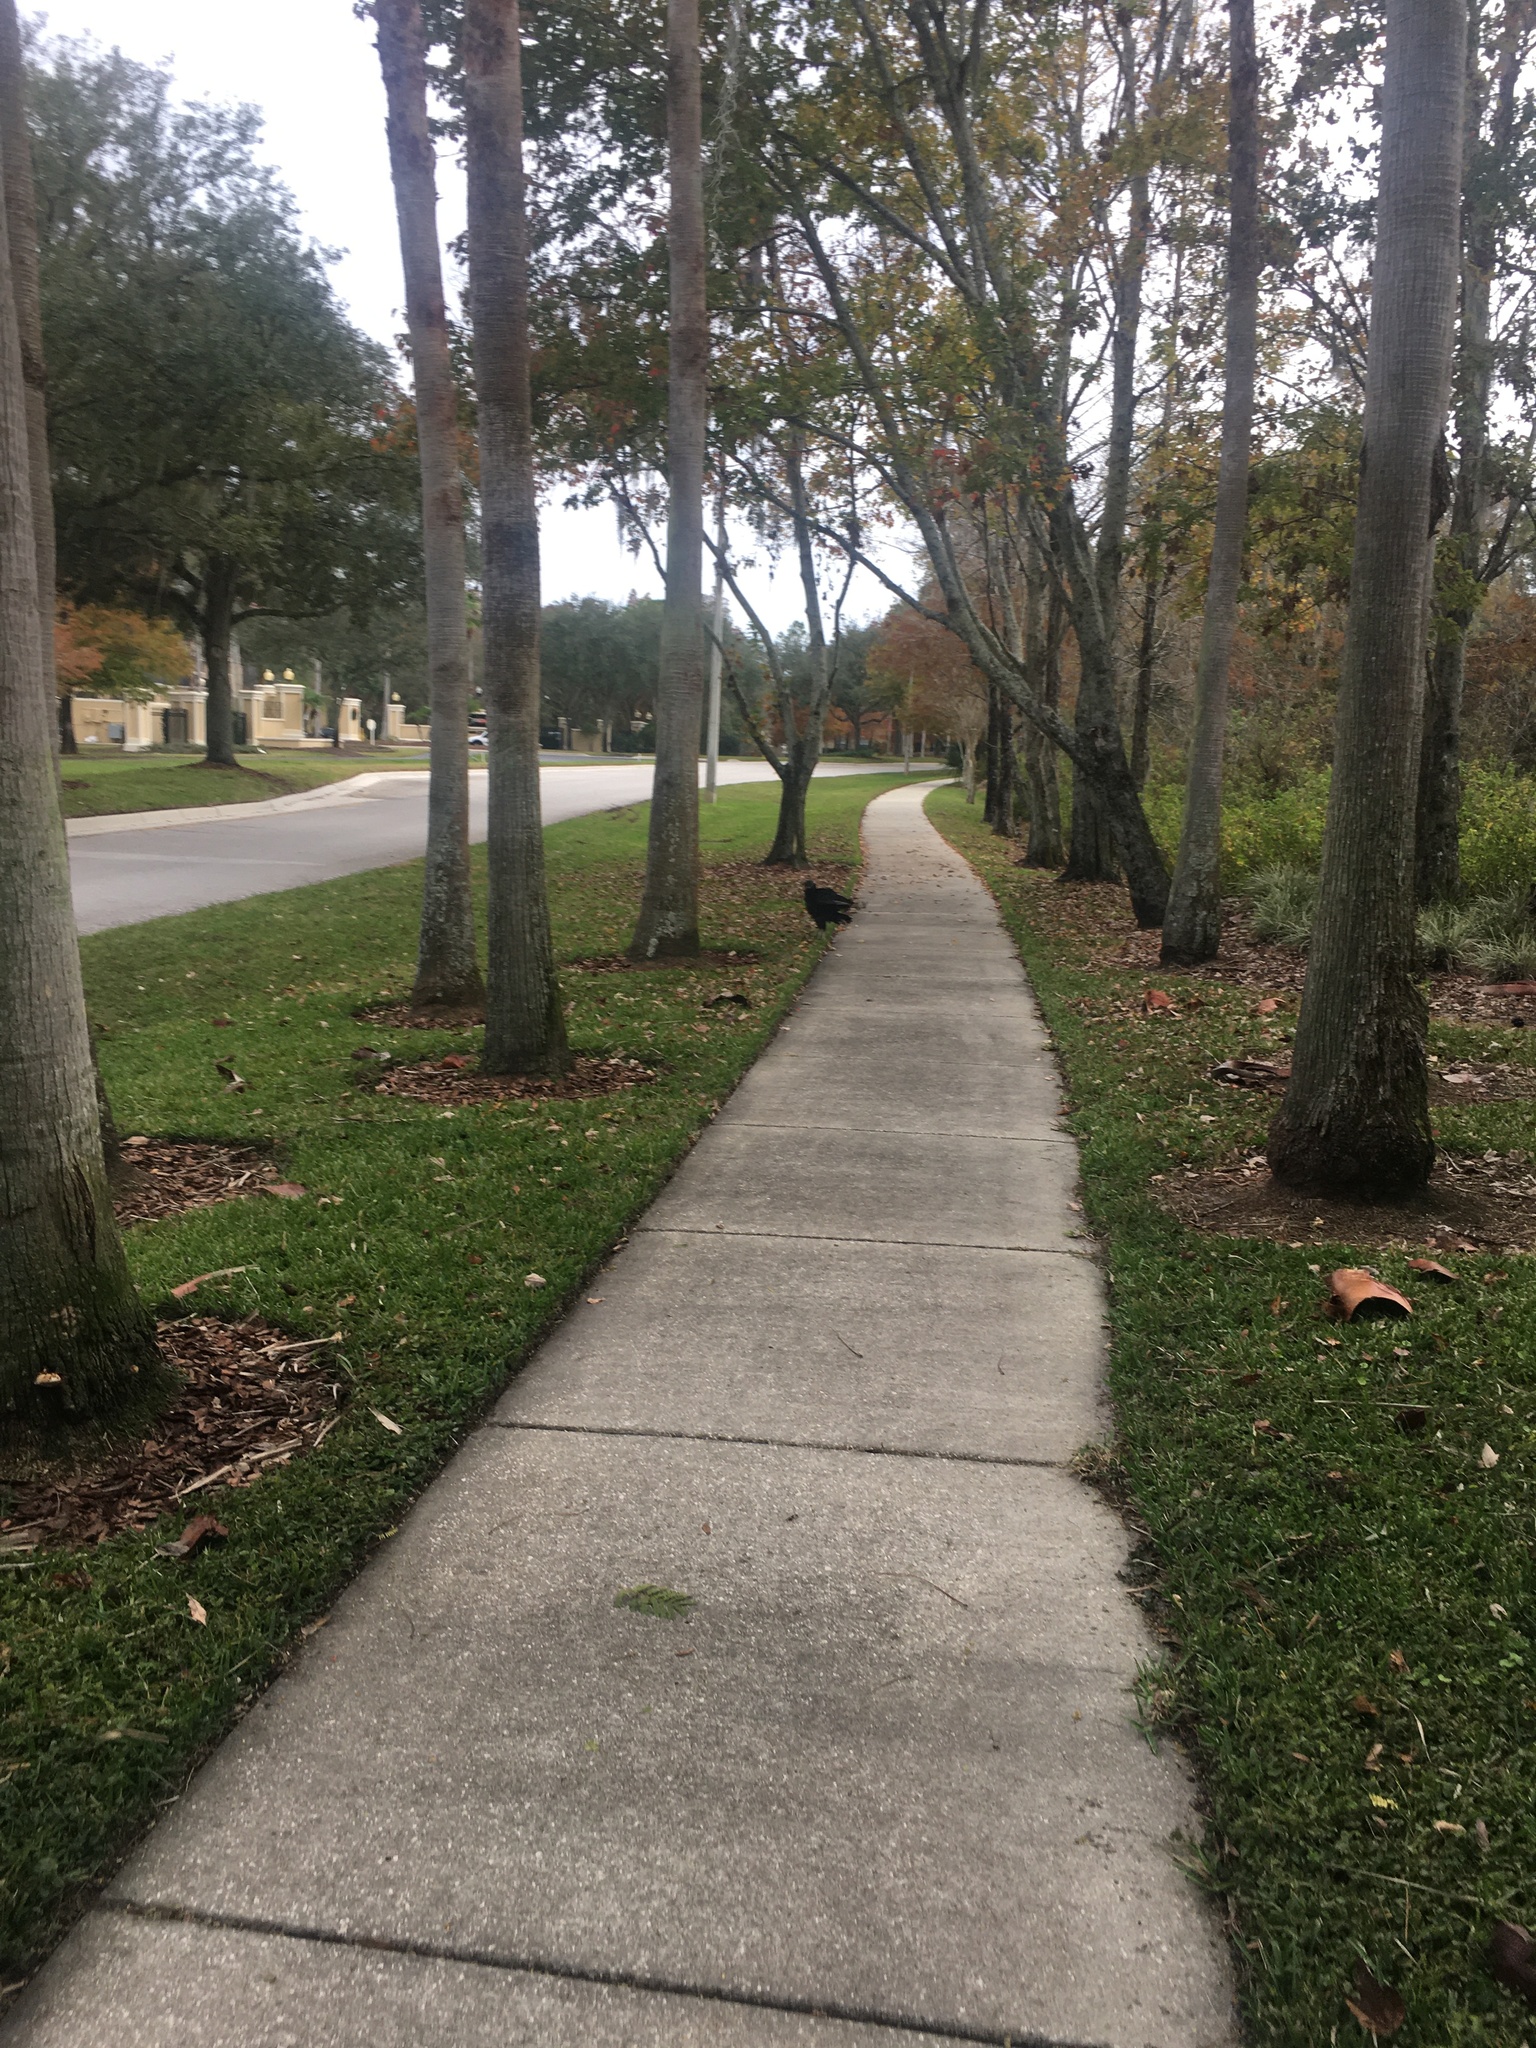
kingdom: Animalia
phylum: Chordata
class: Aves
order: Accipitriformes
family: Cathartidae
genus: Coragyps
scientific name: Coragyps atratus
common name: Black vulture
